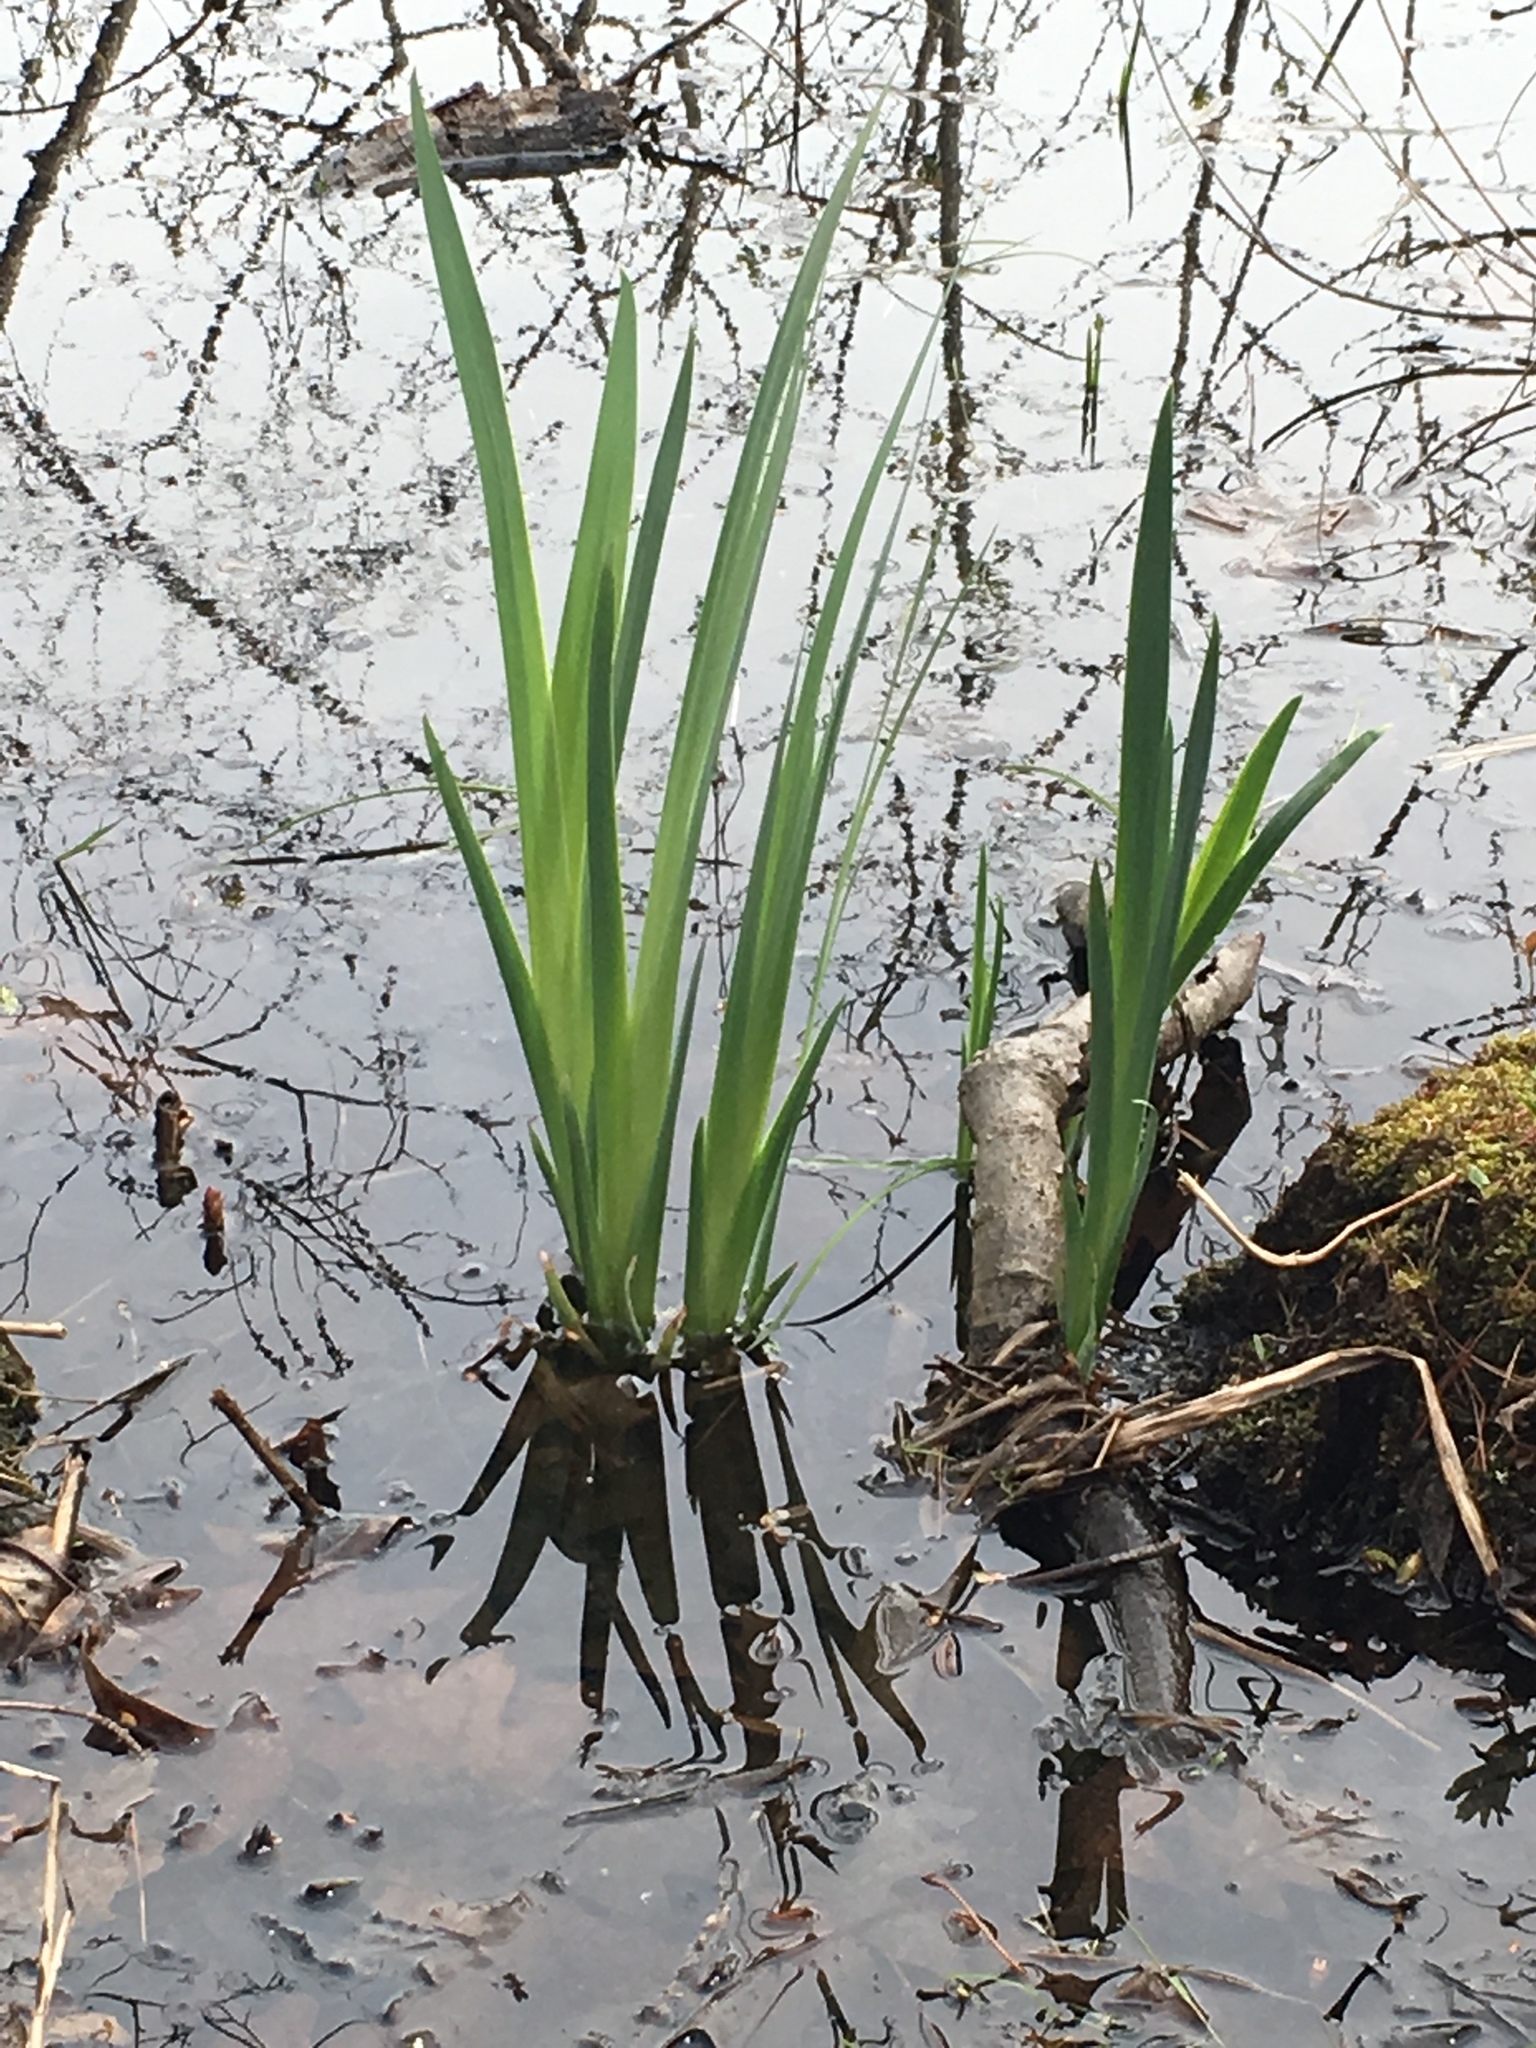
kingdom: Plantae
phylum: Tracheophyta
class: Liliopsida
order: Asparagales
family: Iridaceae
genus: Iris
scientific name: Iris pseudacorus
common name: Yellow flag
